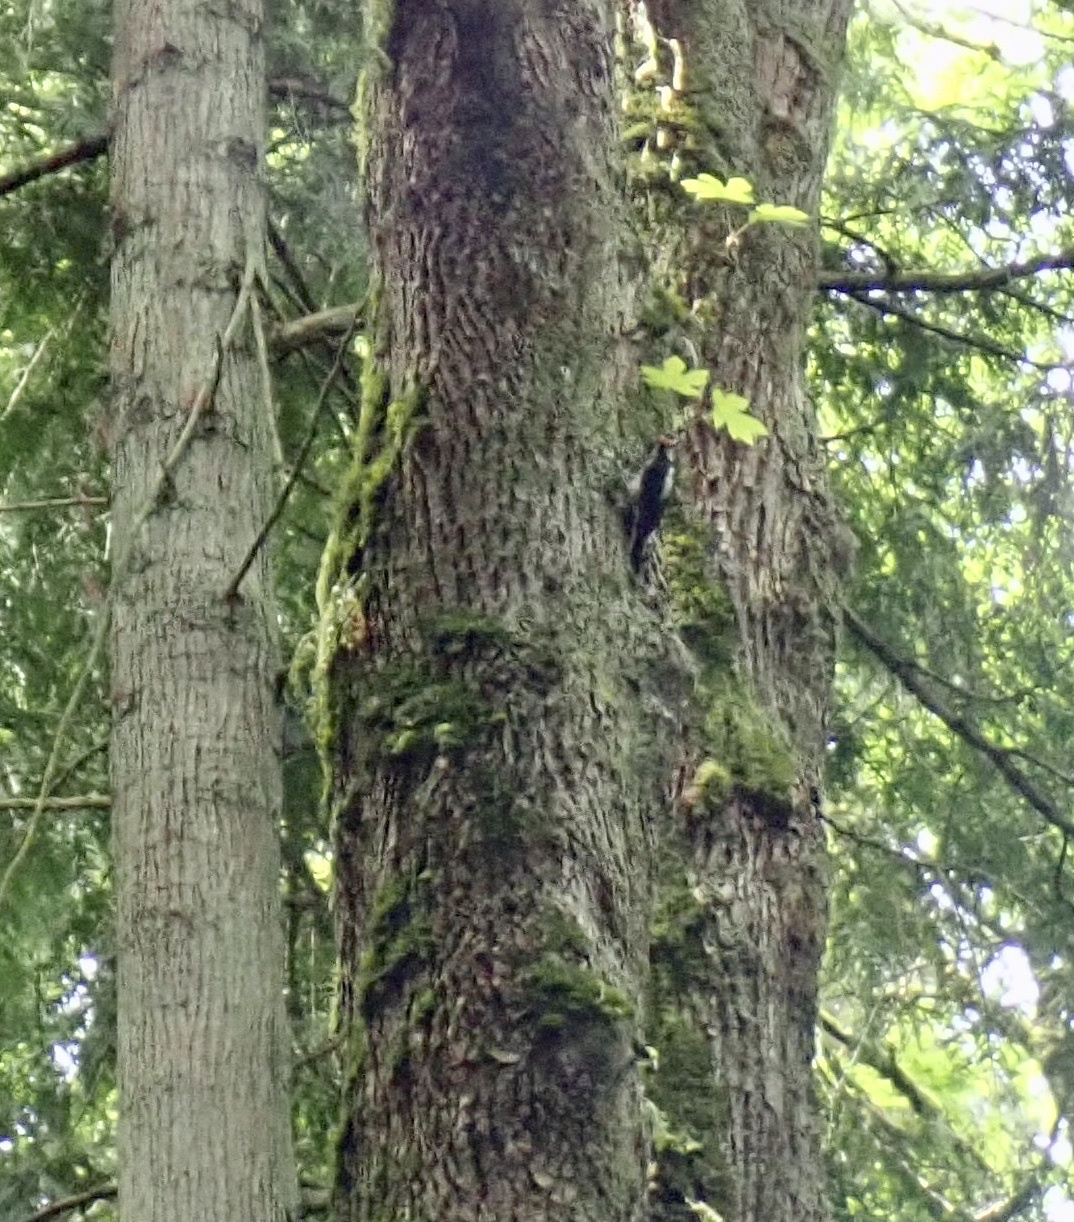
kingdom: Animalia
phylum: Chordata
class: Aves
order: Piciformes
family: Picidae
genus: Leuconotopicus
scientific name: Leuconotopicus villosus
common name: Hairy woodpecker
